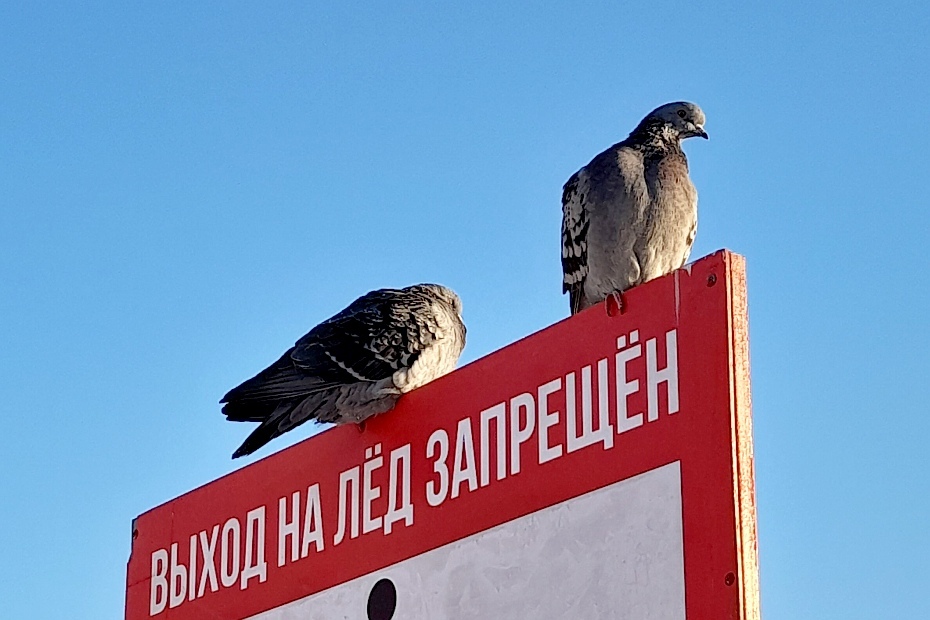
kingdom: Animalia
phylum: Chordata
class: Aves
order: Columbiformes
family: Columbidae
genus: Columba
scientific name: Columba livia
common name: Rock pigeon
